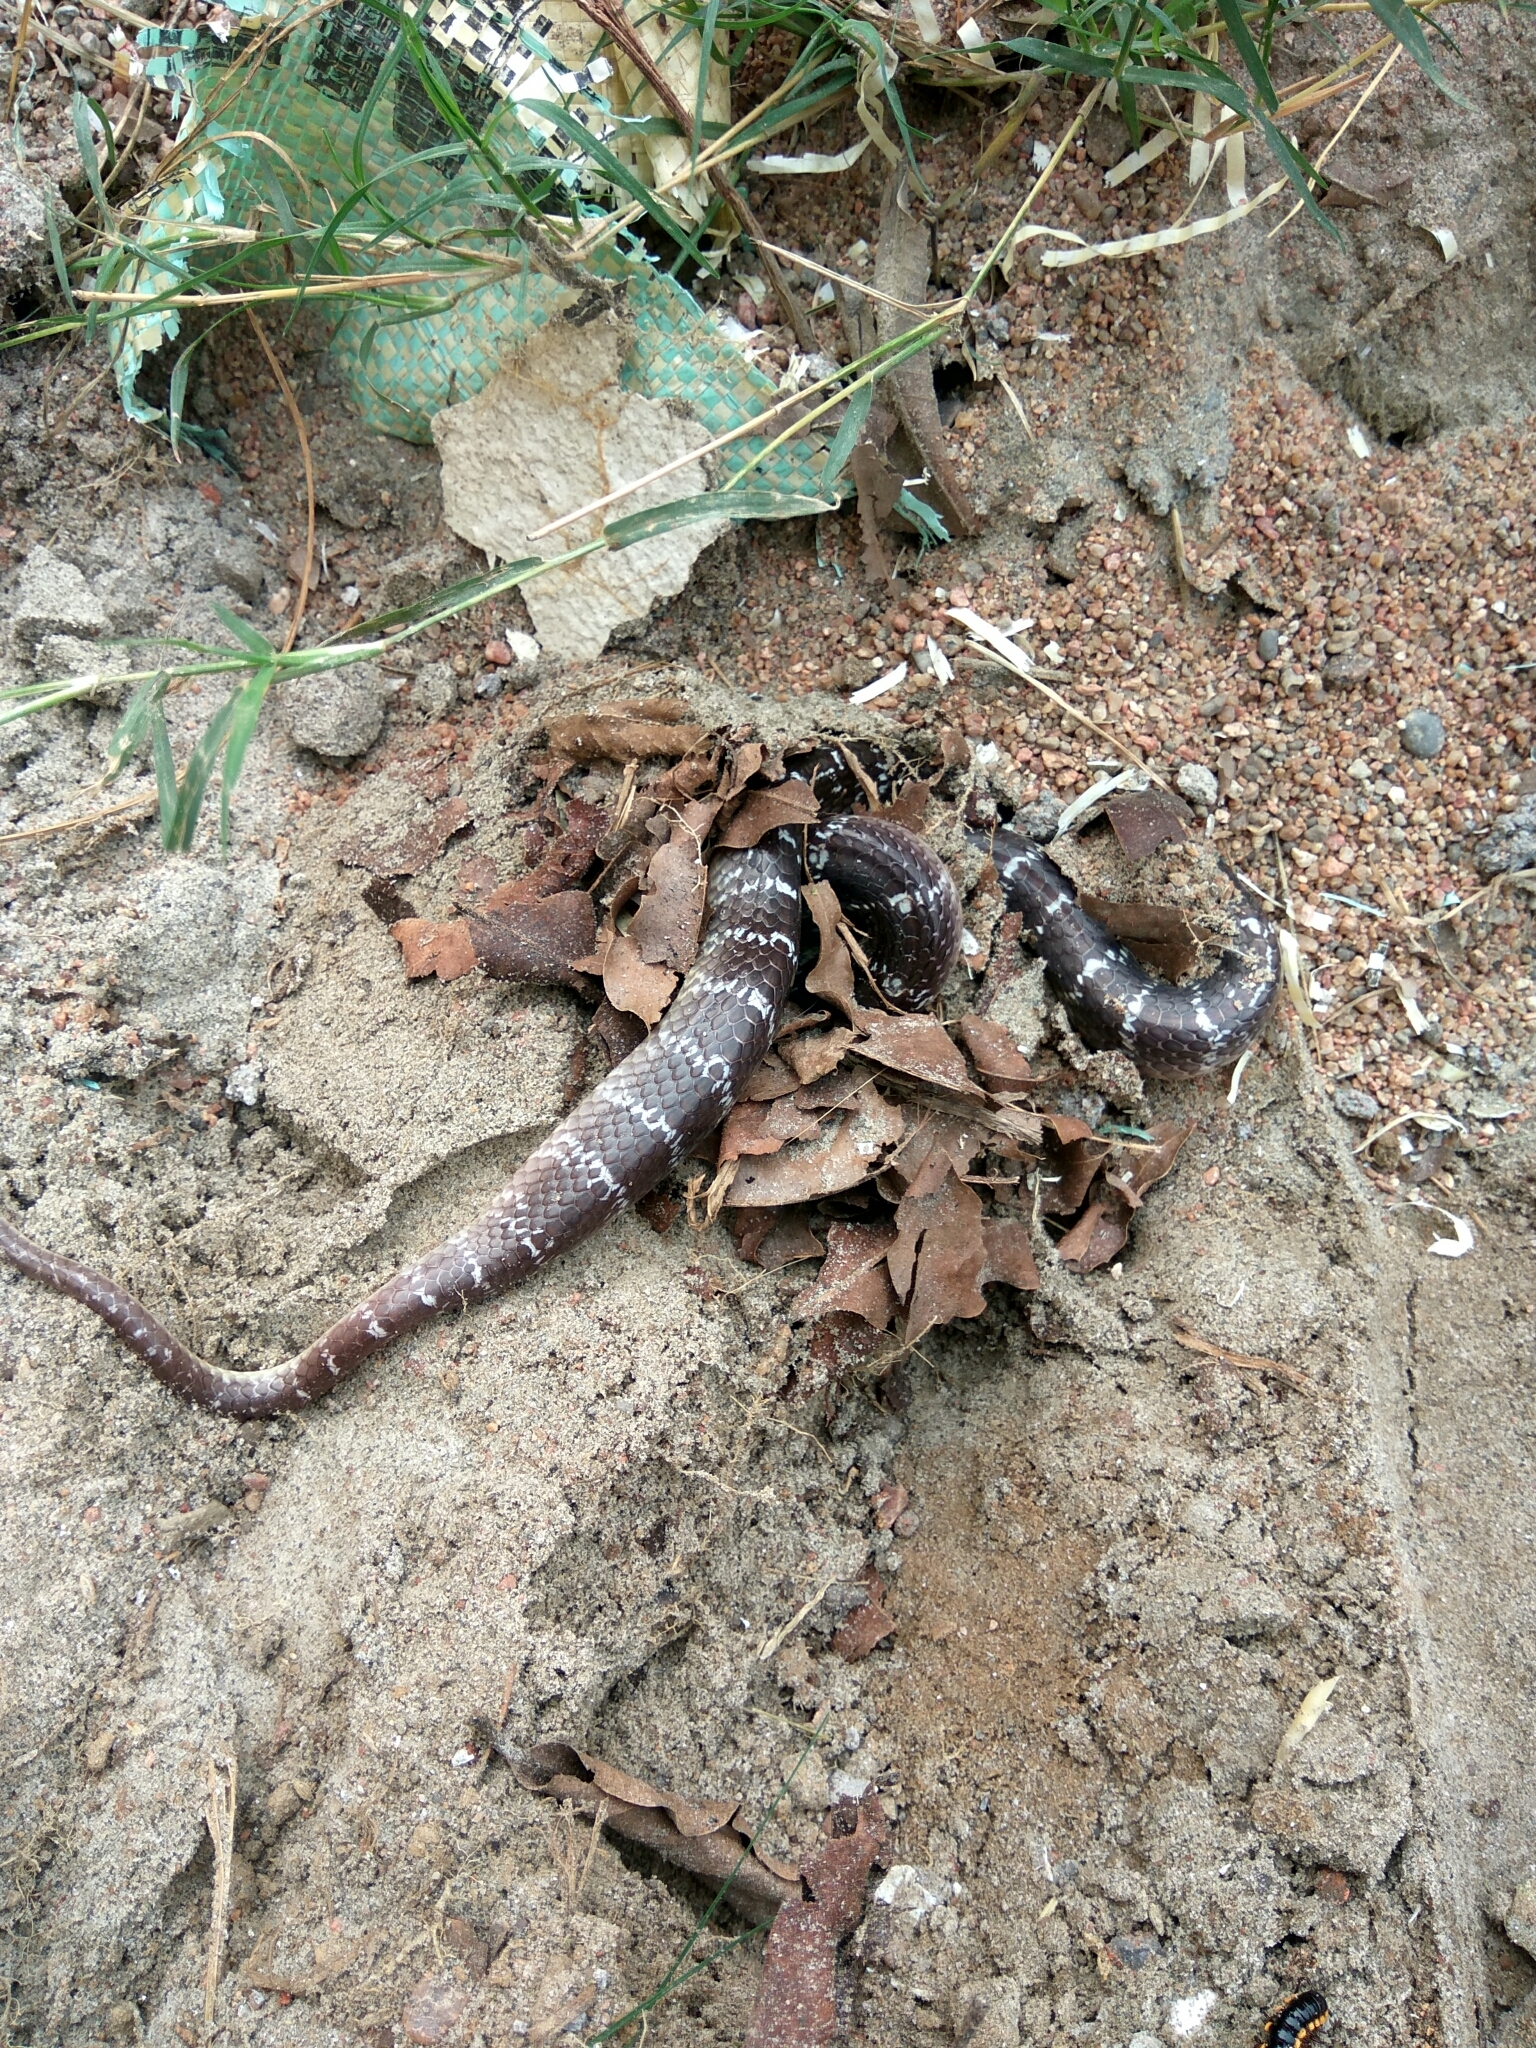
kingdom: Animalia
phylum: Chordata
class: Squamata
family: Elapidae
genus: Bungarus
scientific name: Bungarus caeruleus
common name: Common krait
